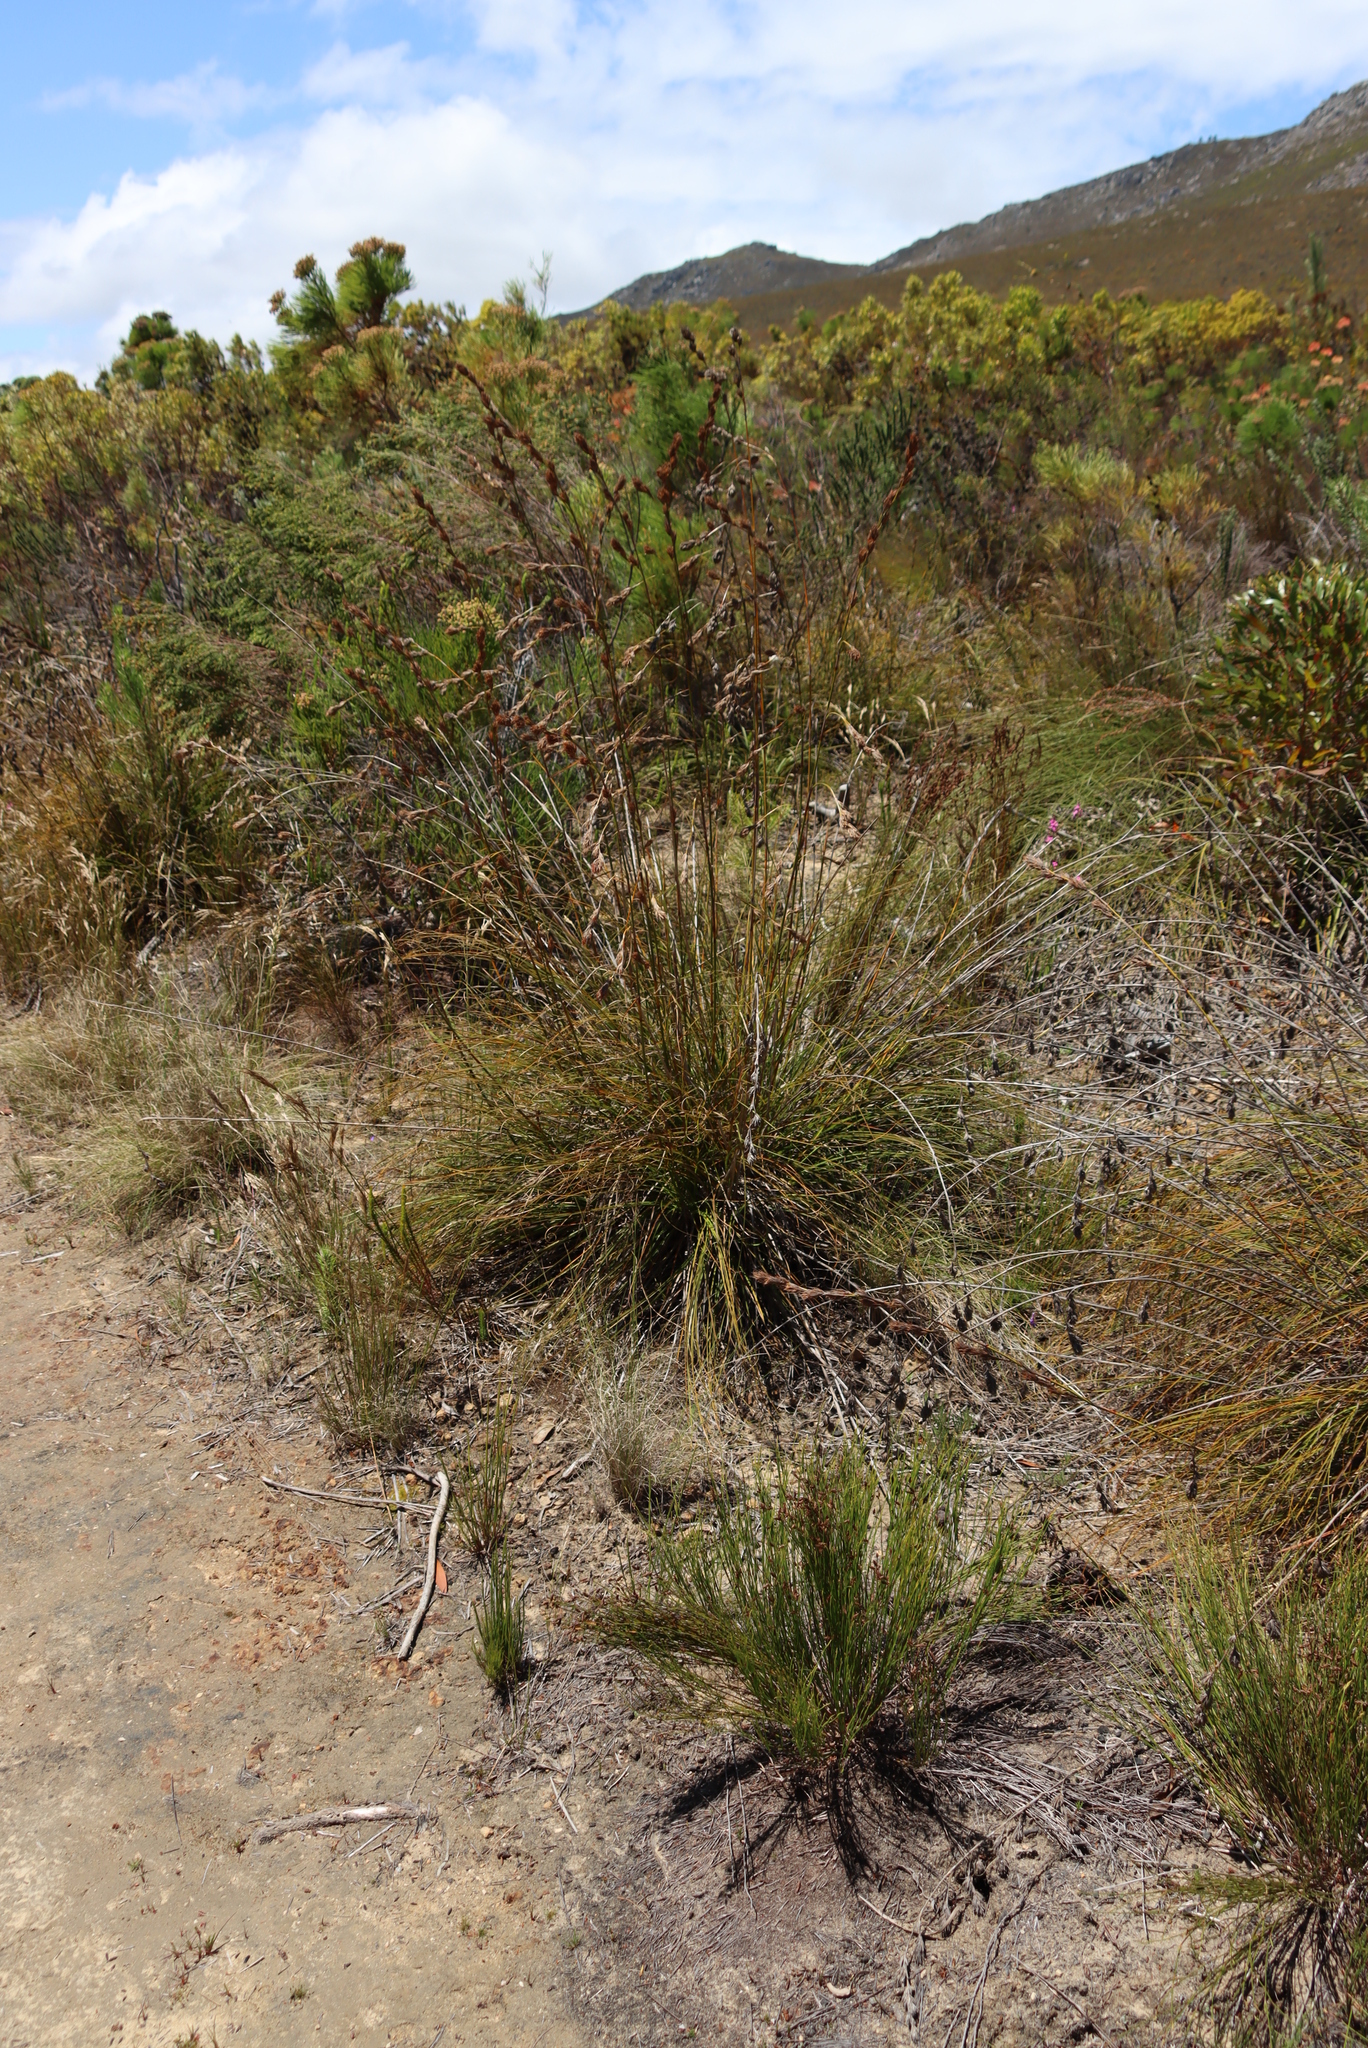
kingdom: Plantae
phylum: Tracheophyta
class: Liliopsida
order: Poales
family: Cyperaceae
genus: Tetraria
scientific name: Tetraria bromoides
